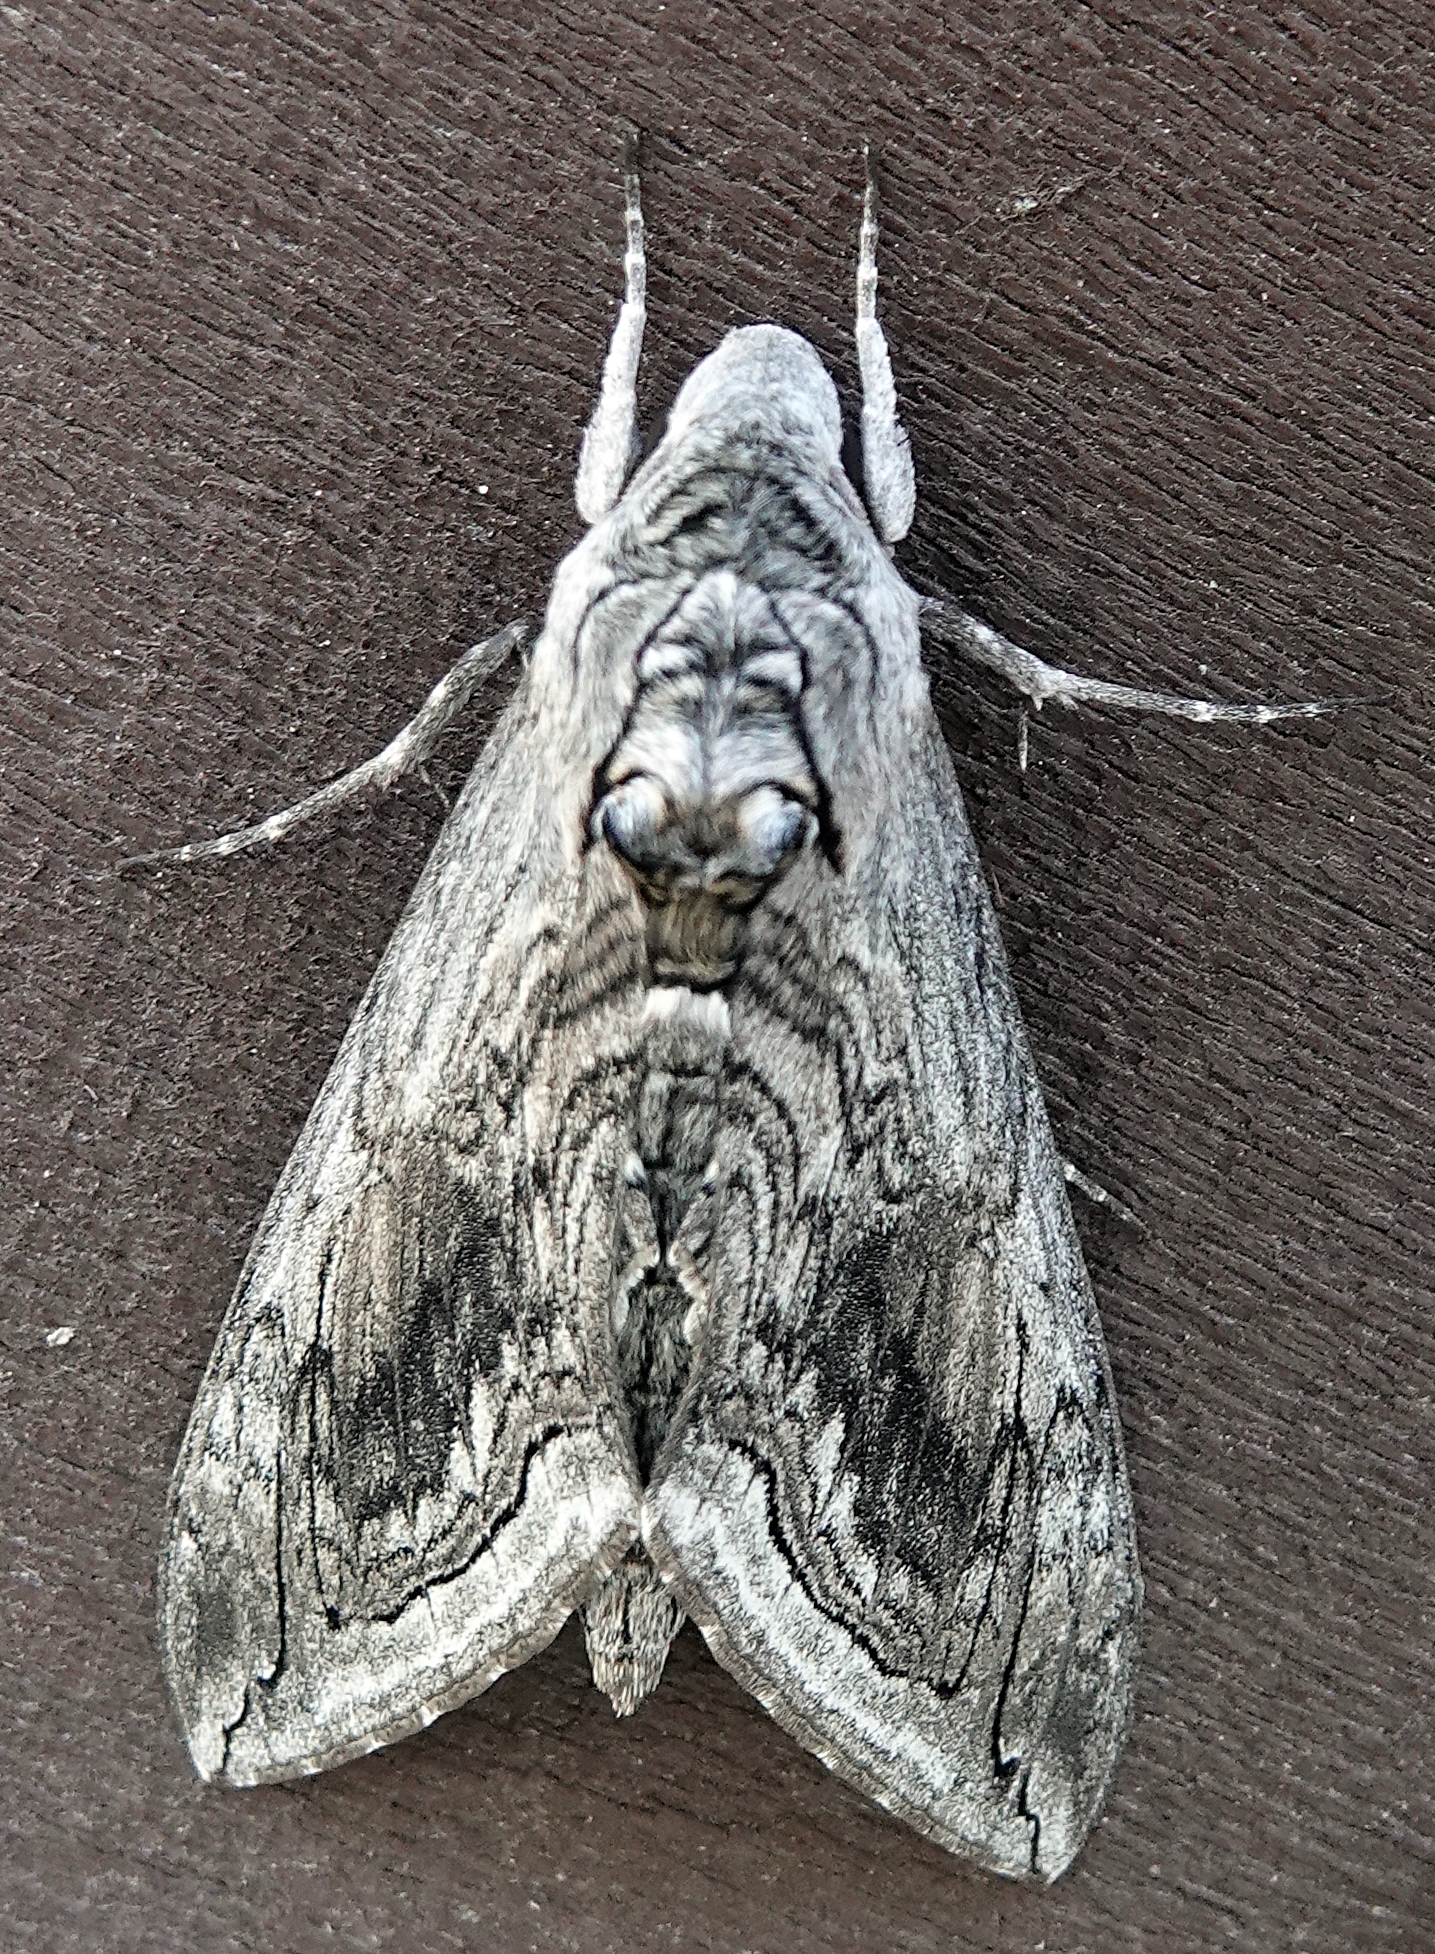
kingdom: Animalia
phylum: Arthropoda
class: Insecta
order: Lepidoptera
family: Sphingidae
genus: Manduca
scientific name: Manduca quinquemaculatus
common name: Five-spotted hawk-moth
